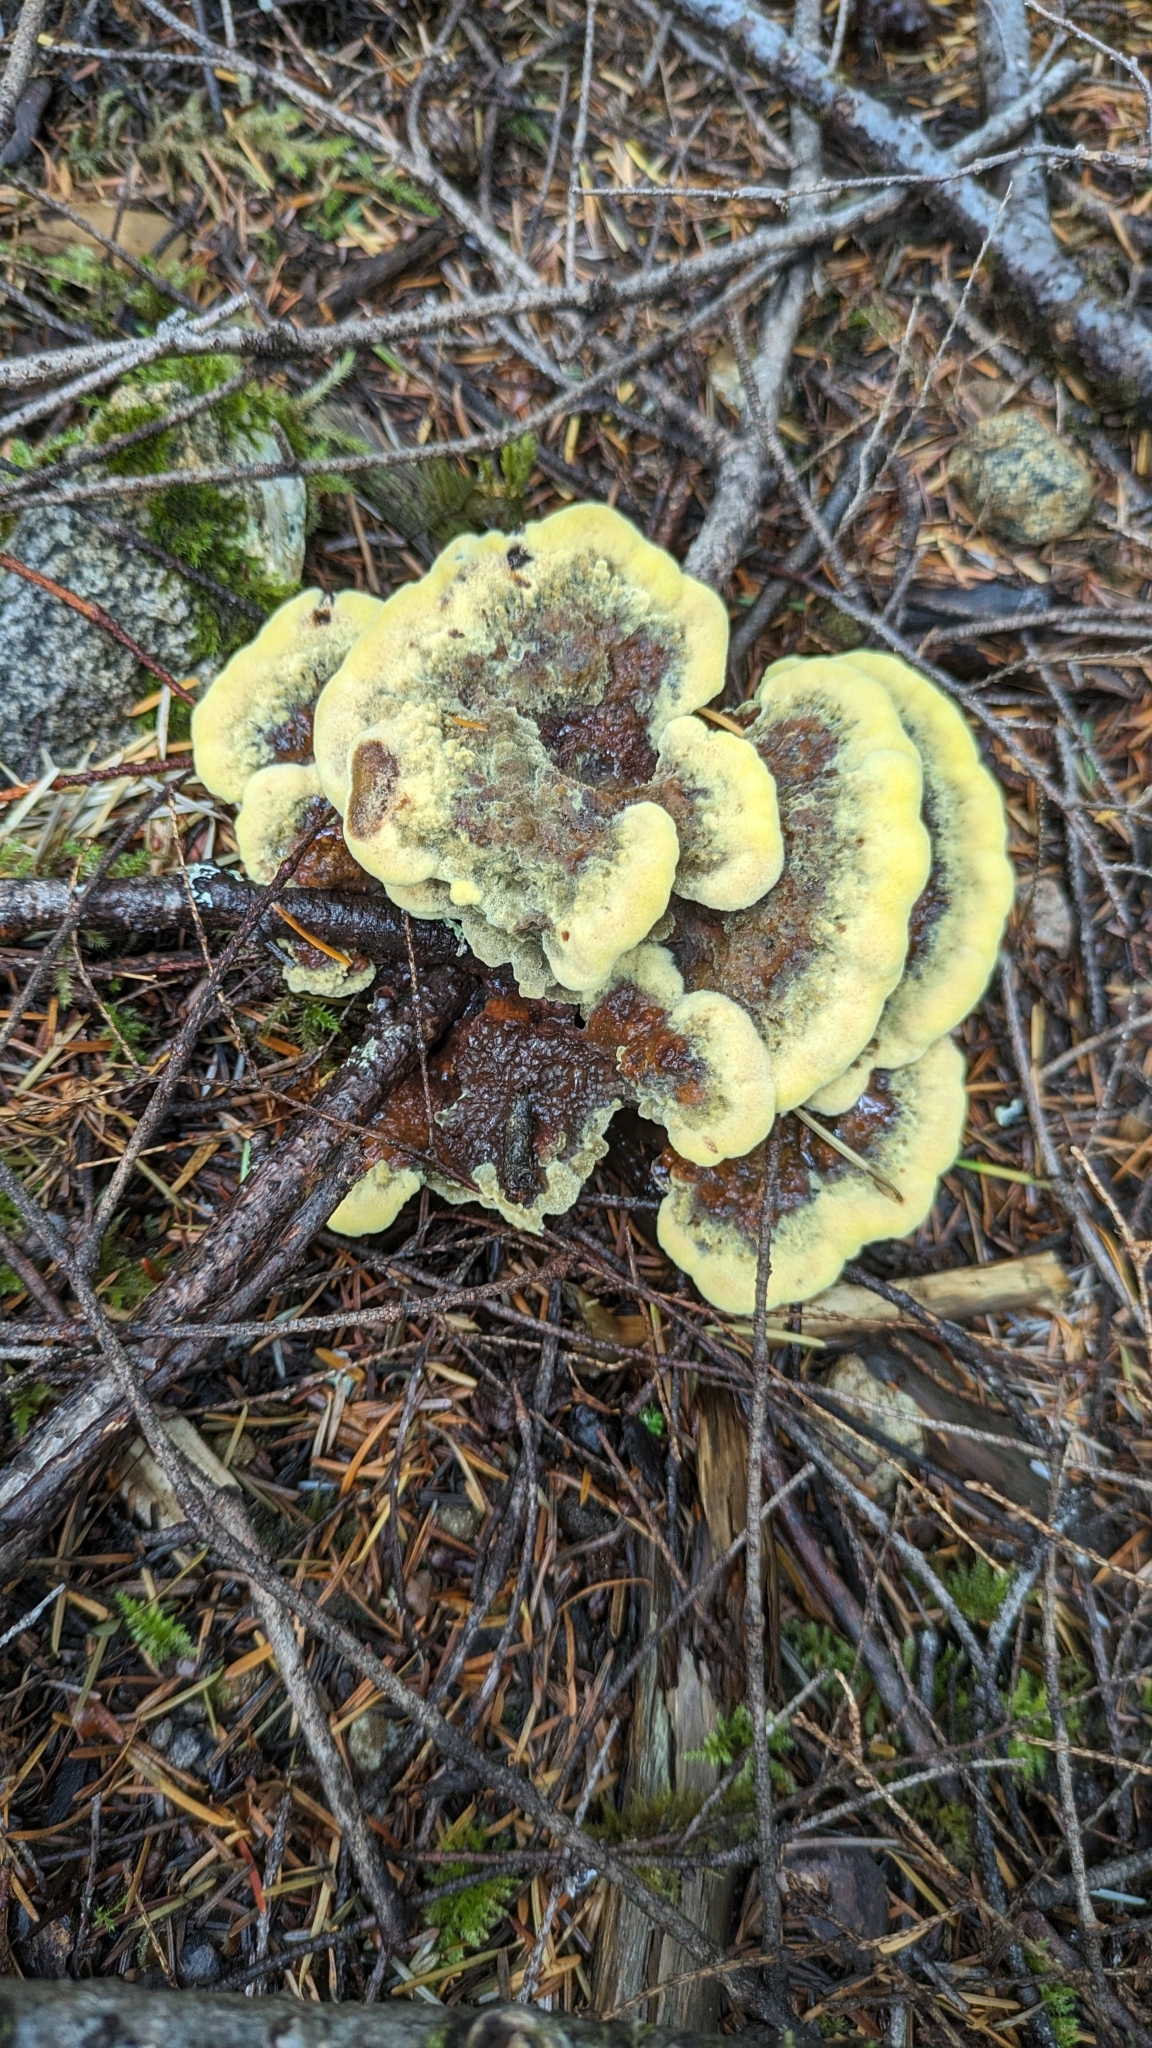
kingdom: Fungi
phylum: Basidiomycota
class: Agaricomycetes
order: Polyporales
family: Laetiporaceae
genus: Phaeolus
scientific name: Phaeolus schweinitzii
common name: Dyer's mazegill
